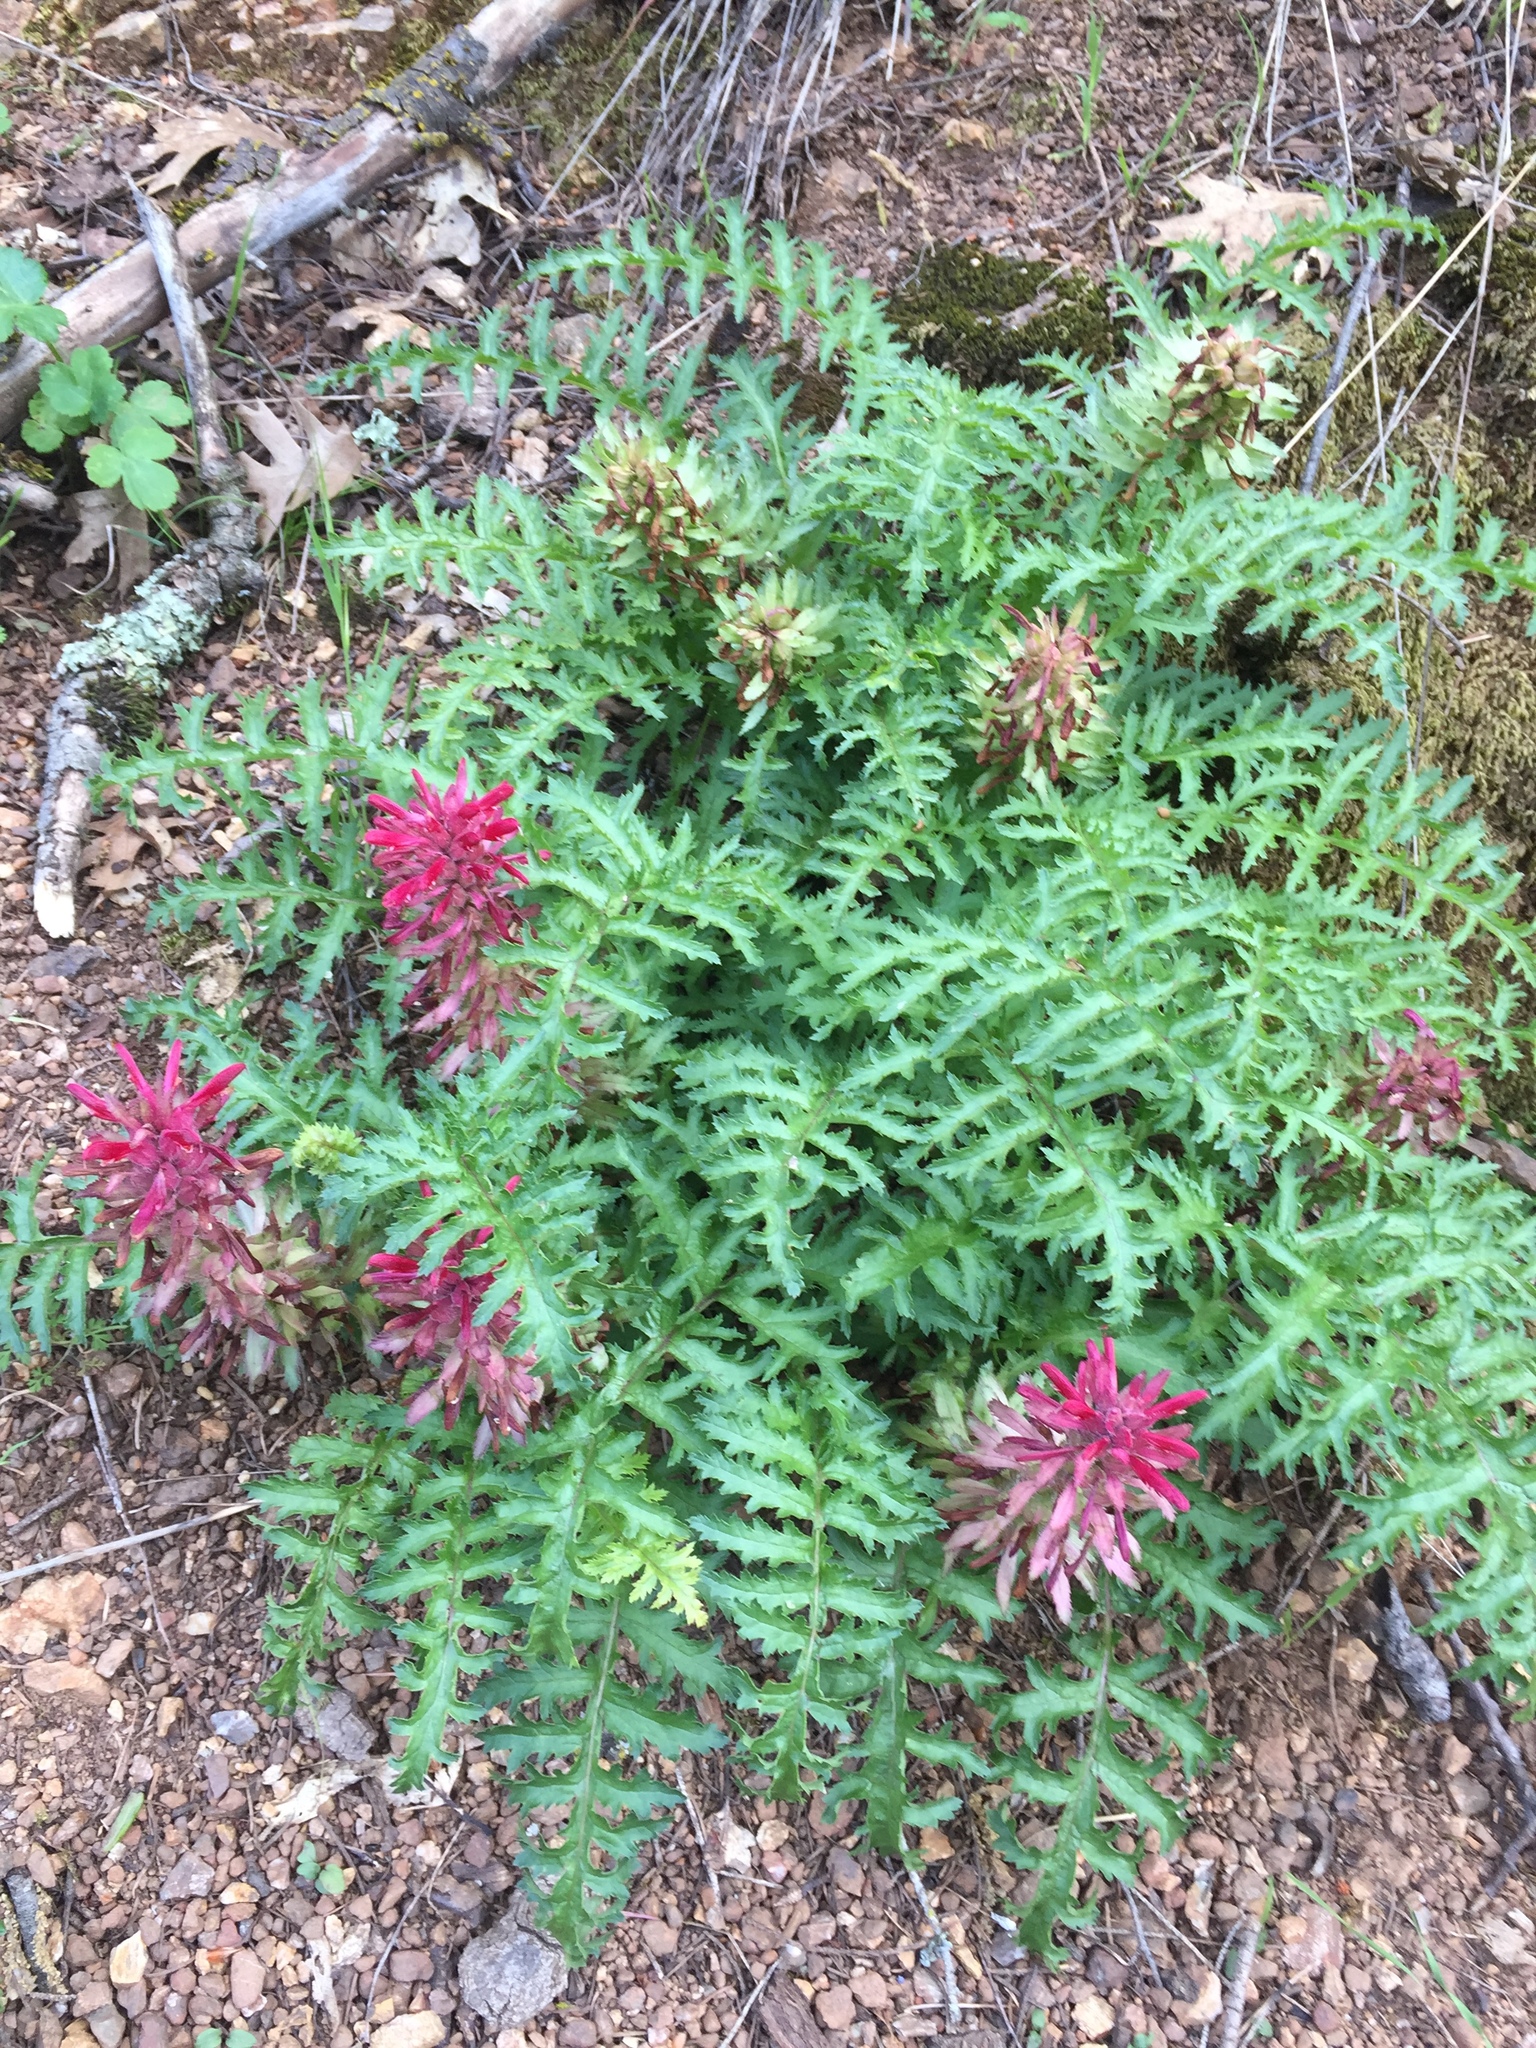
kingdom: Plantae
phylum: Tracheophyta
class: Magnoliopsida
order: Lamiales
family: Orobanchaceae
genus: Pedicularis
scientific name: Pedicularis densiflora
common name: Indian warrior
